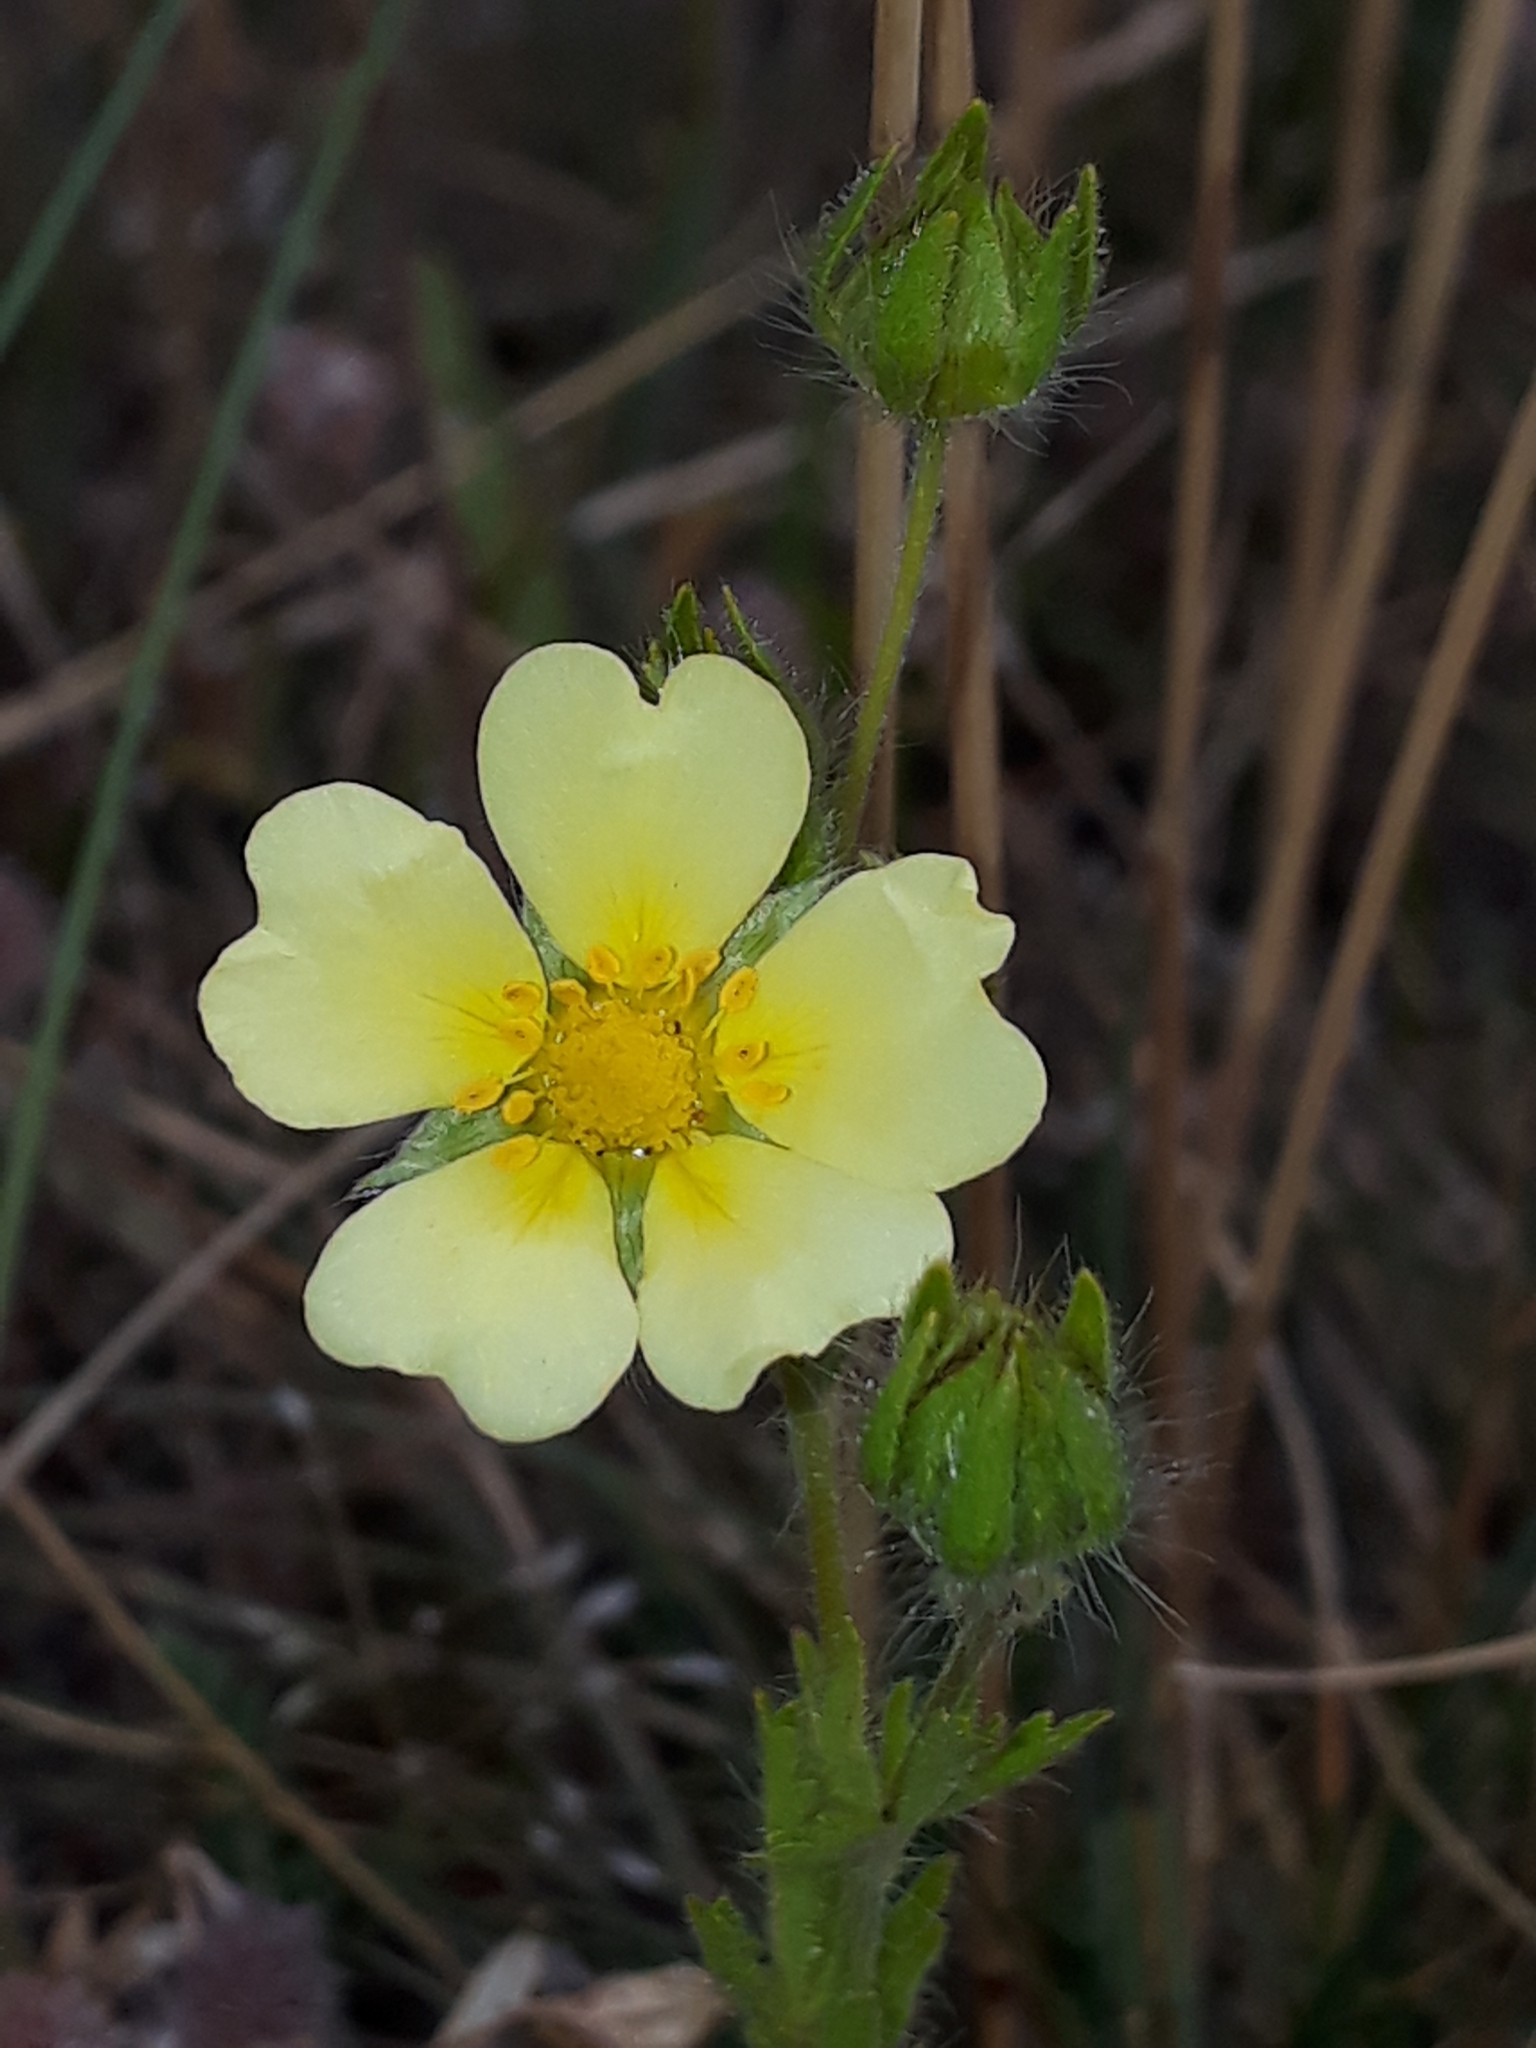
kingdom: Plantae
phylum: Tracheophyta
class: Magnoliopsida
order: Rosales
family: Rosaceae
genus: Potentilla
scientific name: Potentilla recta
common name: Sulphur cinquefoil
